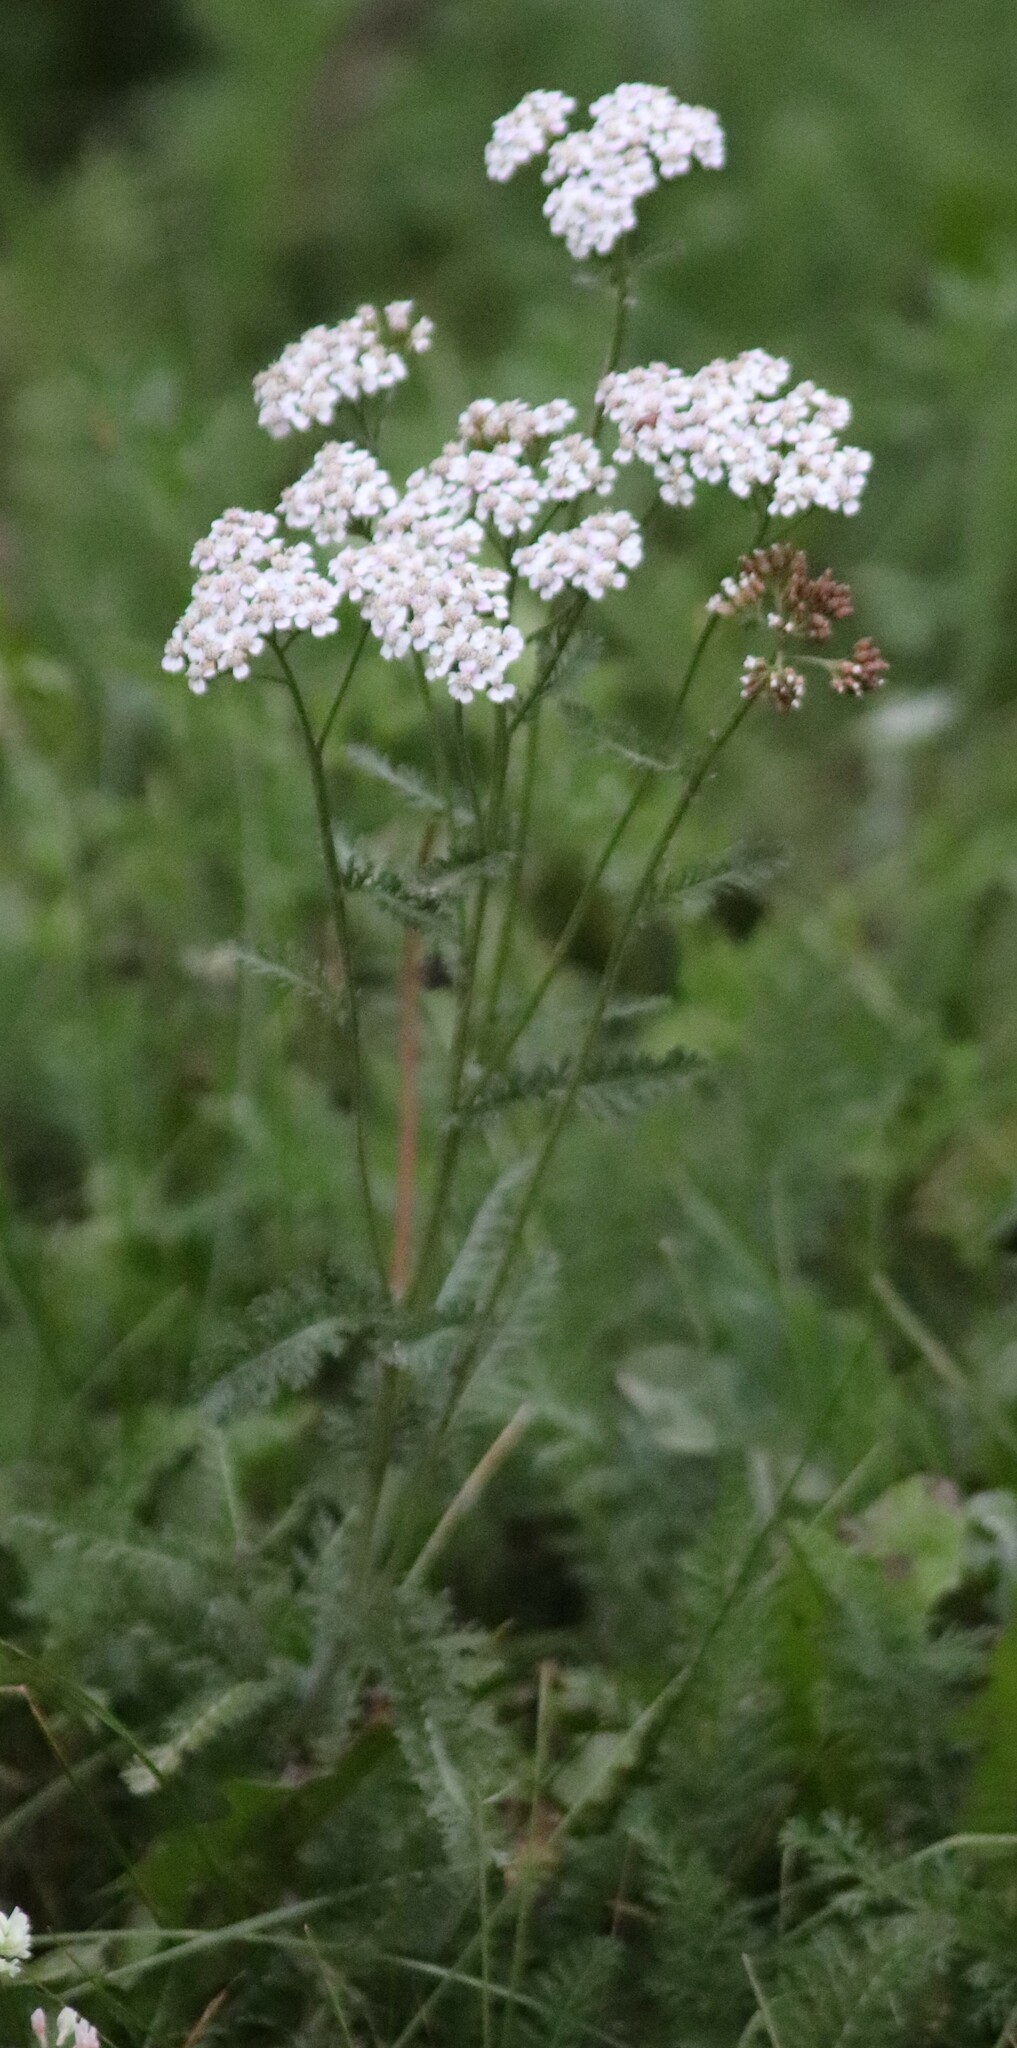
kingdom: Plantae
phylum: Tracheophyta
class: Magnoliopsida
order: Asterales
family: Asteraceae
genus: Achillea
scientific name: Achillea millefolium
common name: Yarrow
